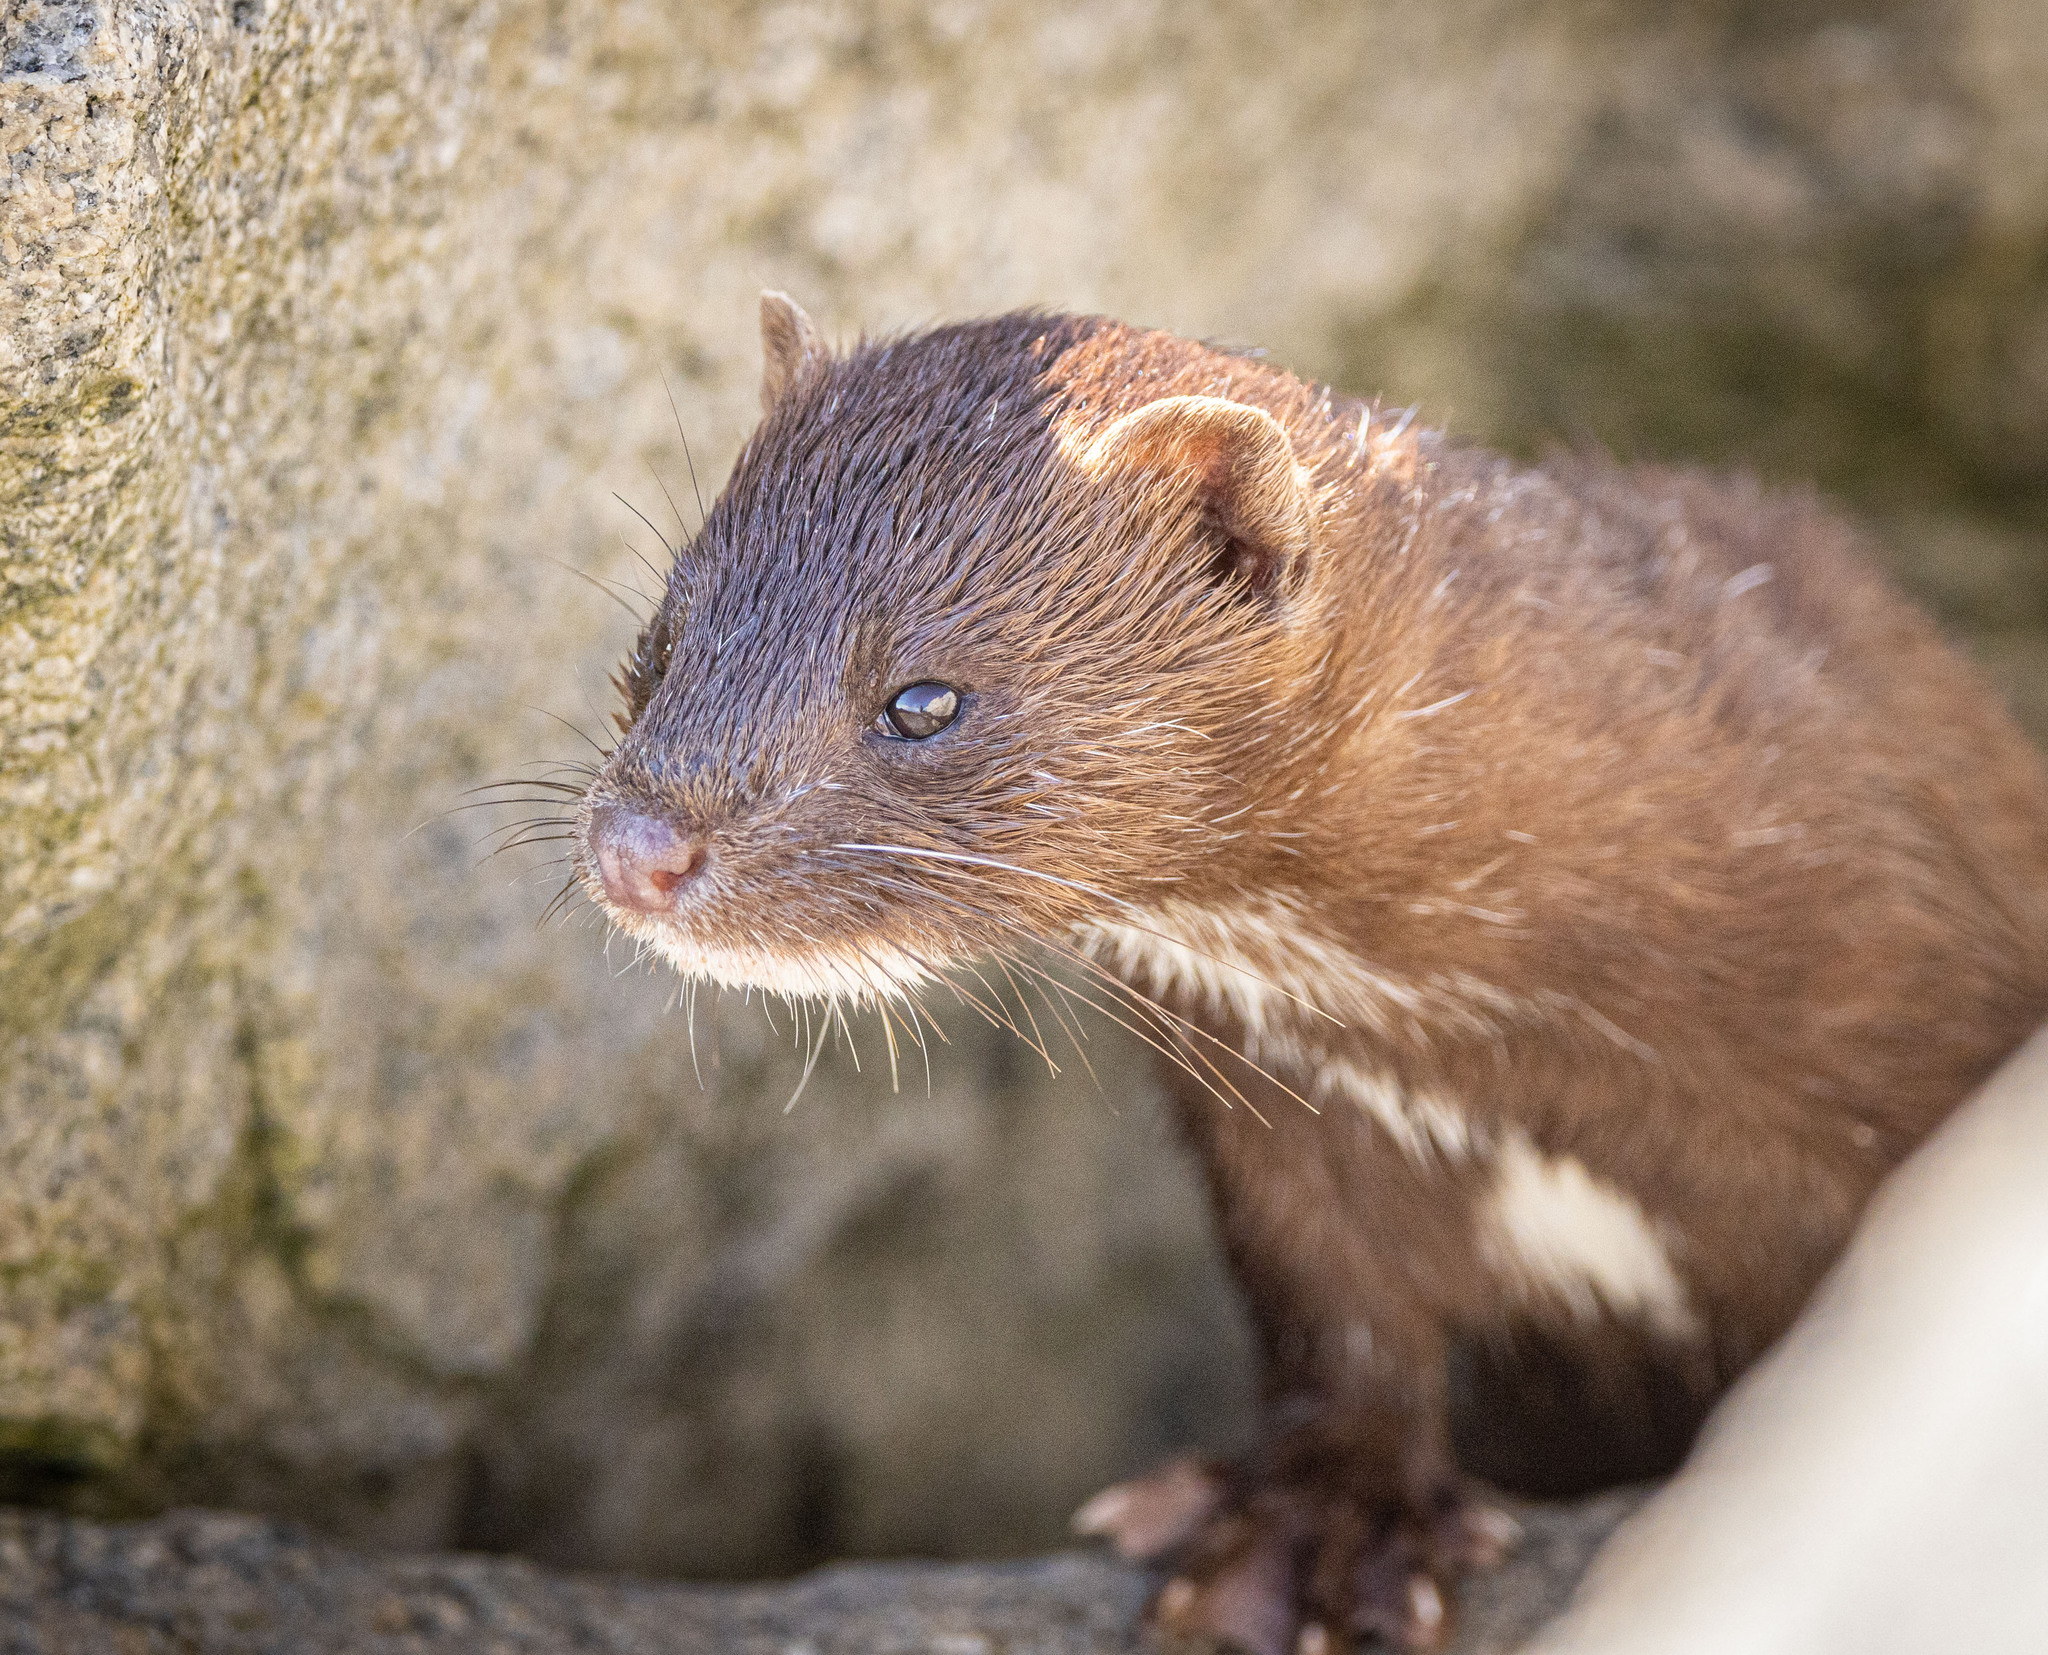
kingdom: Animalia
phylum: Chordata
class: Mammalia
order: Carnivora
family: Mustelidae
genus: Mustela
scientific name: Mustela
